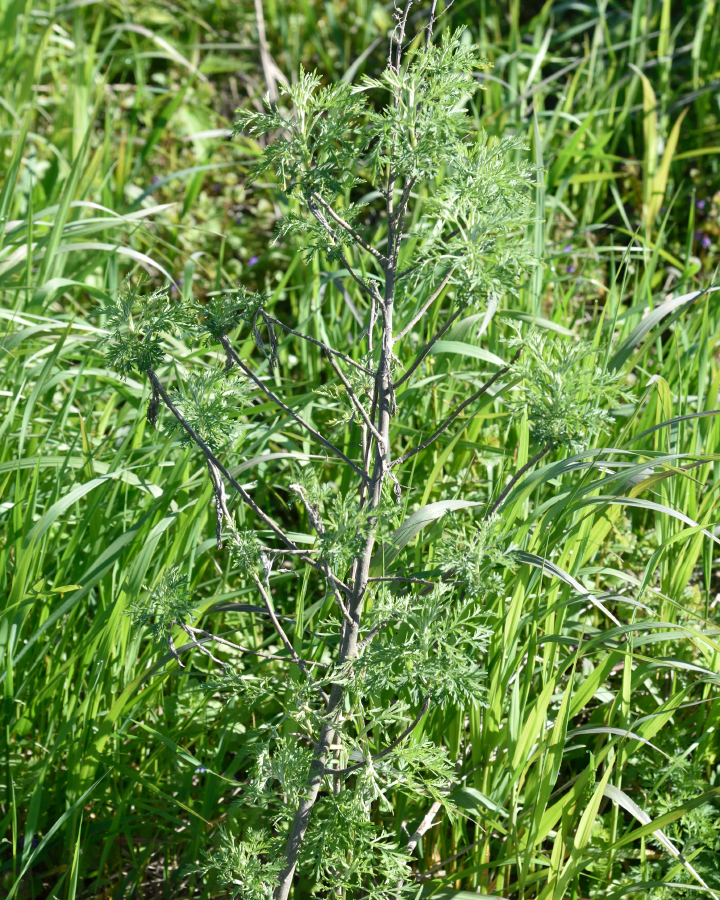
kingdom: Plantae
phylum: Tracheophyta
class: Magnoliopsida
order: Asterales
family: Asteraceae
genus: Artemisia
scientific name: Artemisia abrotanum
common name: Southernwood
